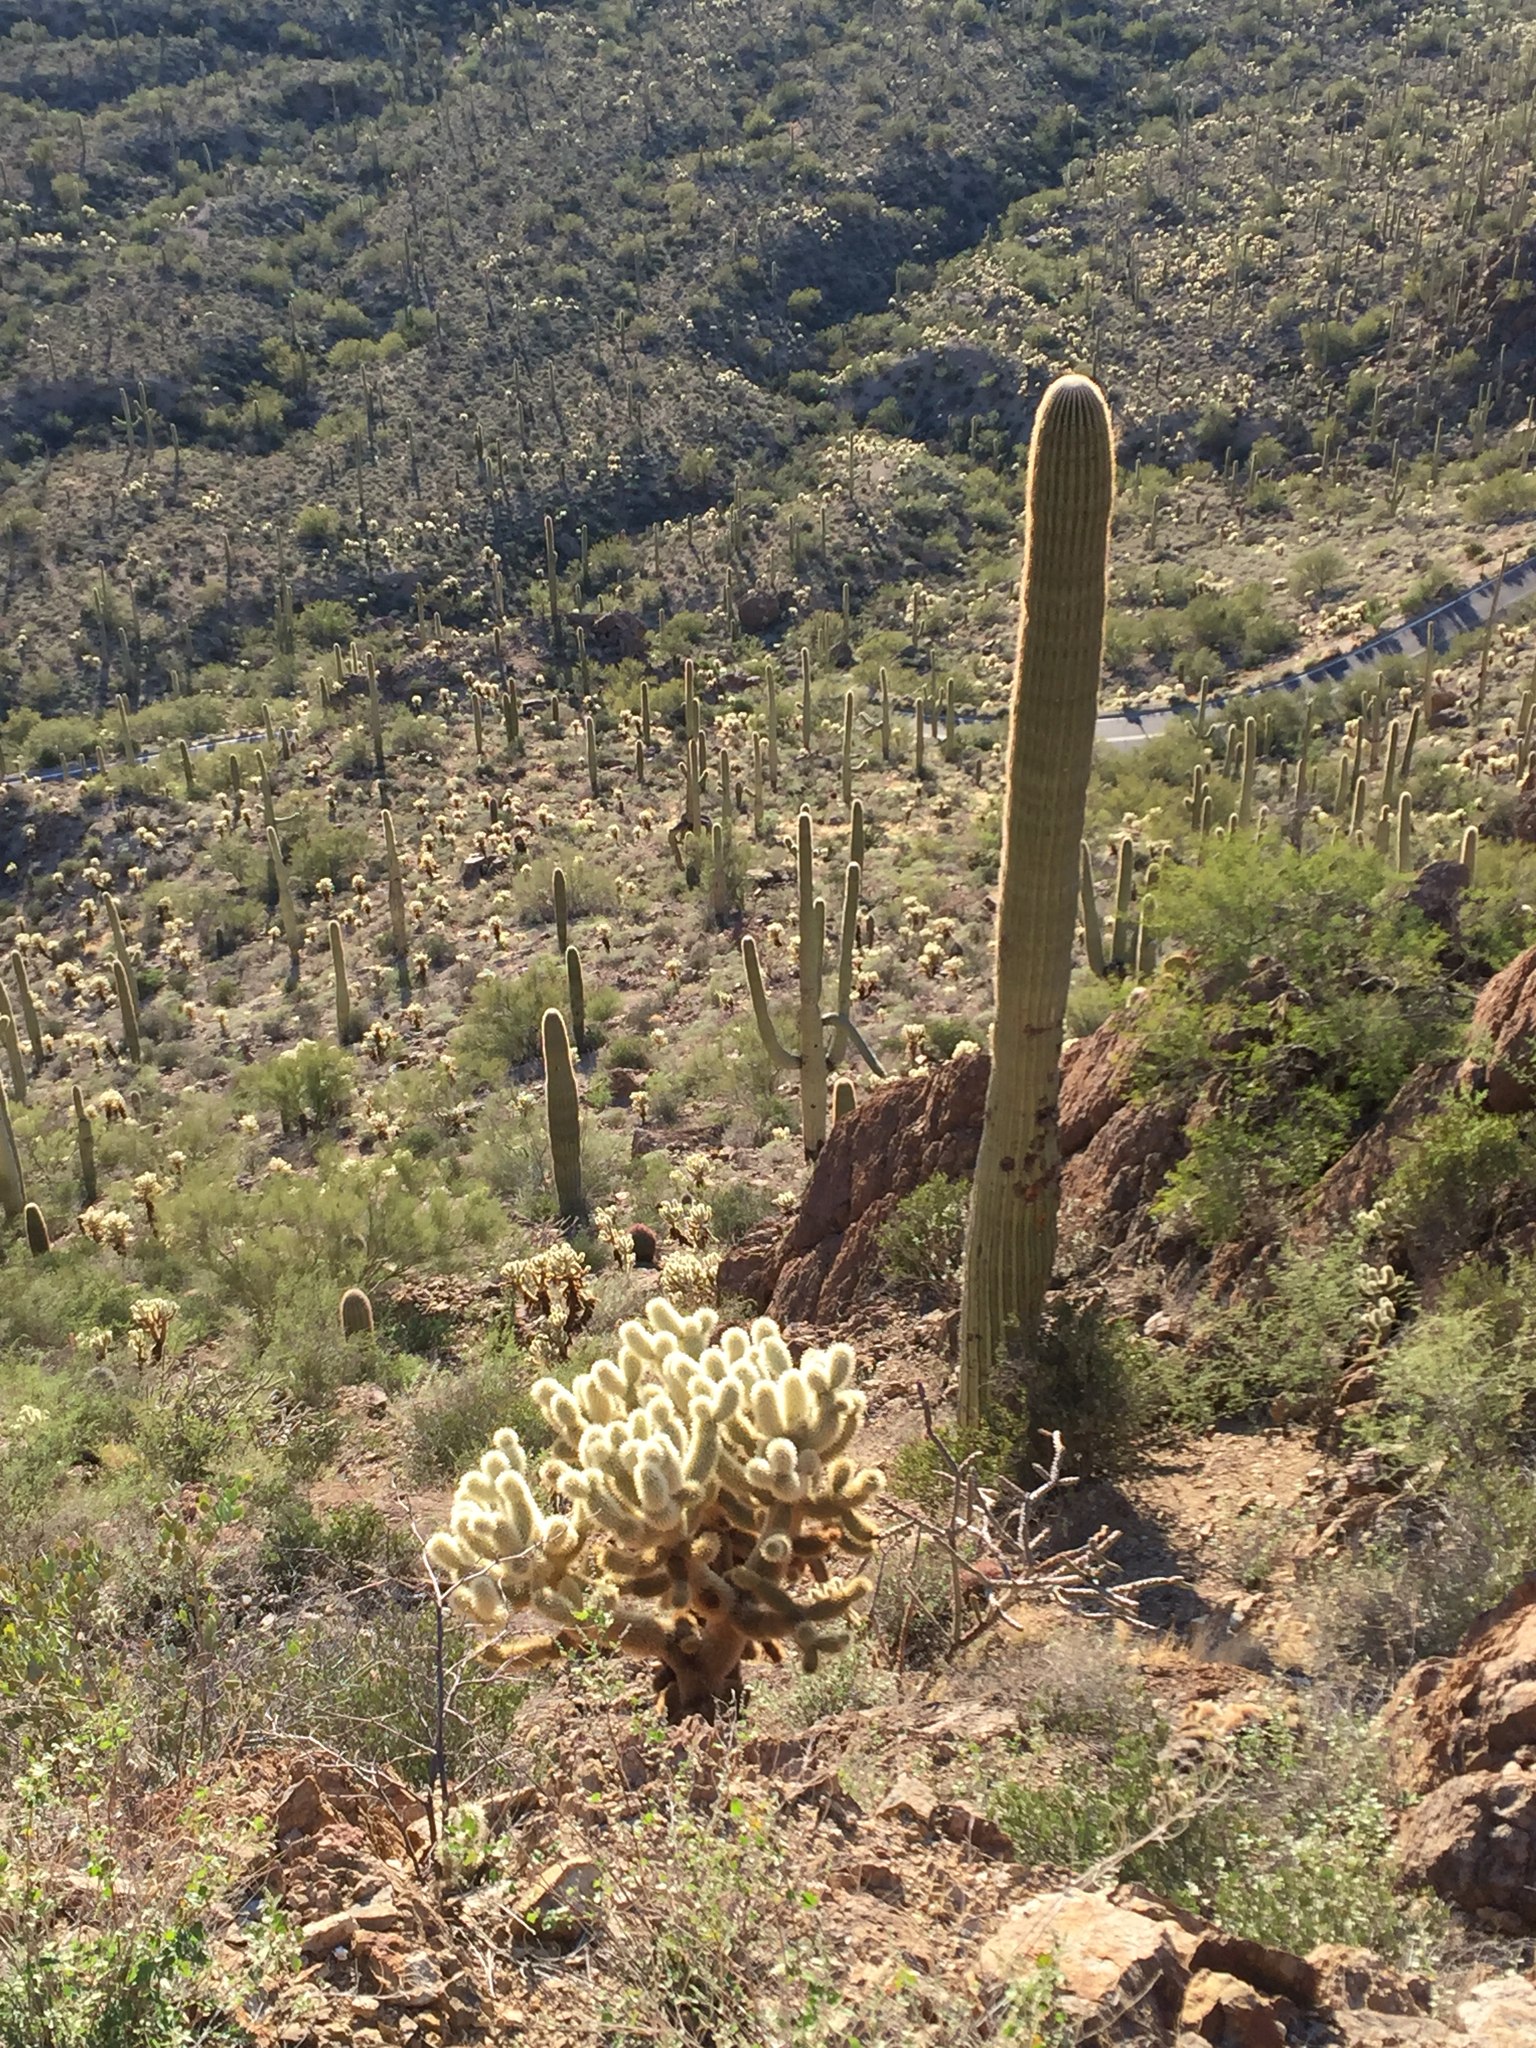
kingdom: Plantae
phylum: Tracheophyta
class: Magnoliopsida
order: Caryophyllales
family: Cactaceae
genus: Carnegiea
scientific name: Carnegiea gigantea
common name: Saguaro
